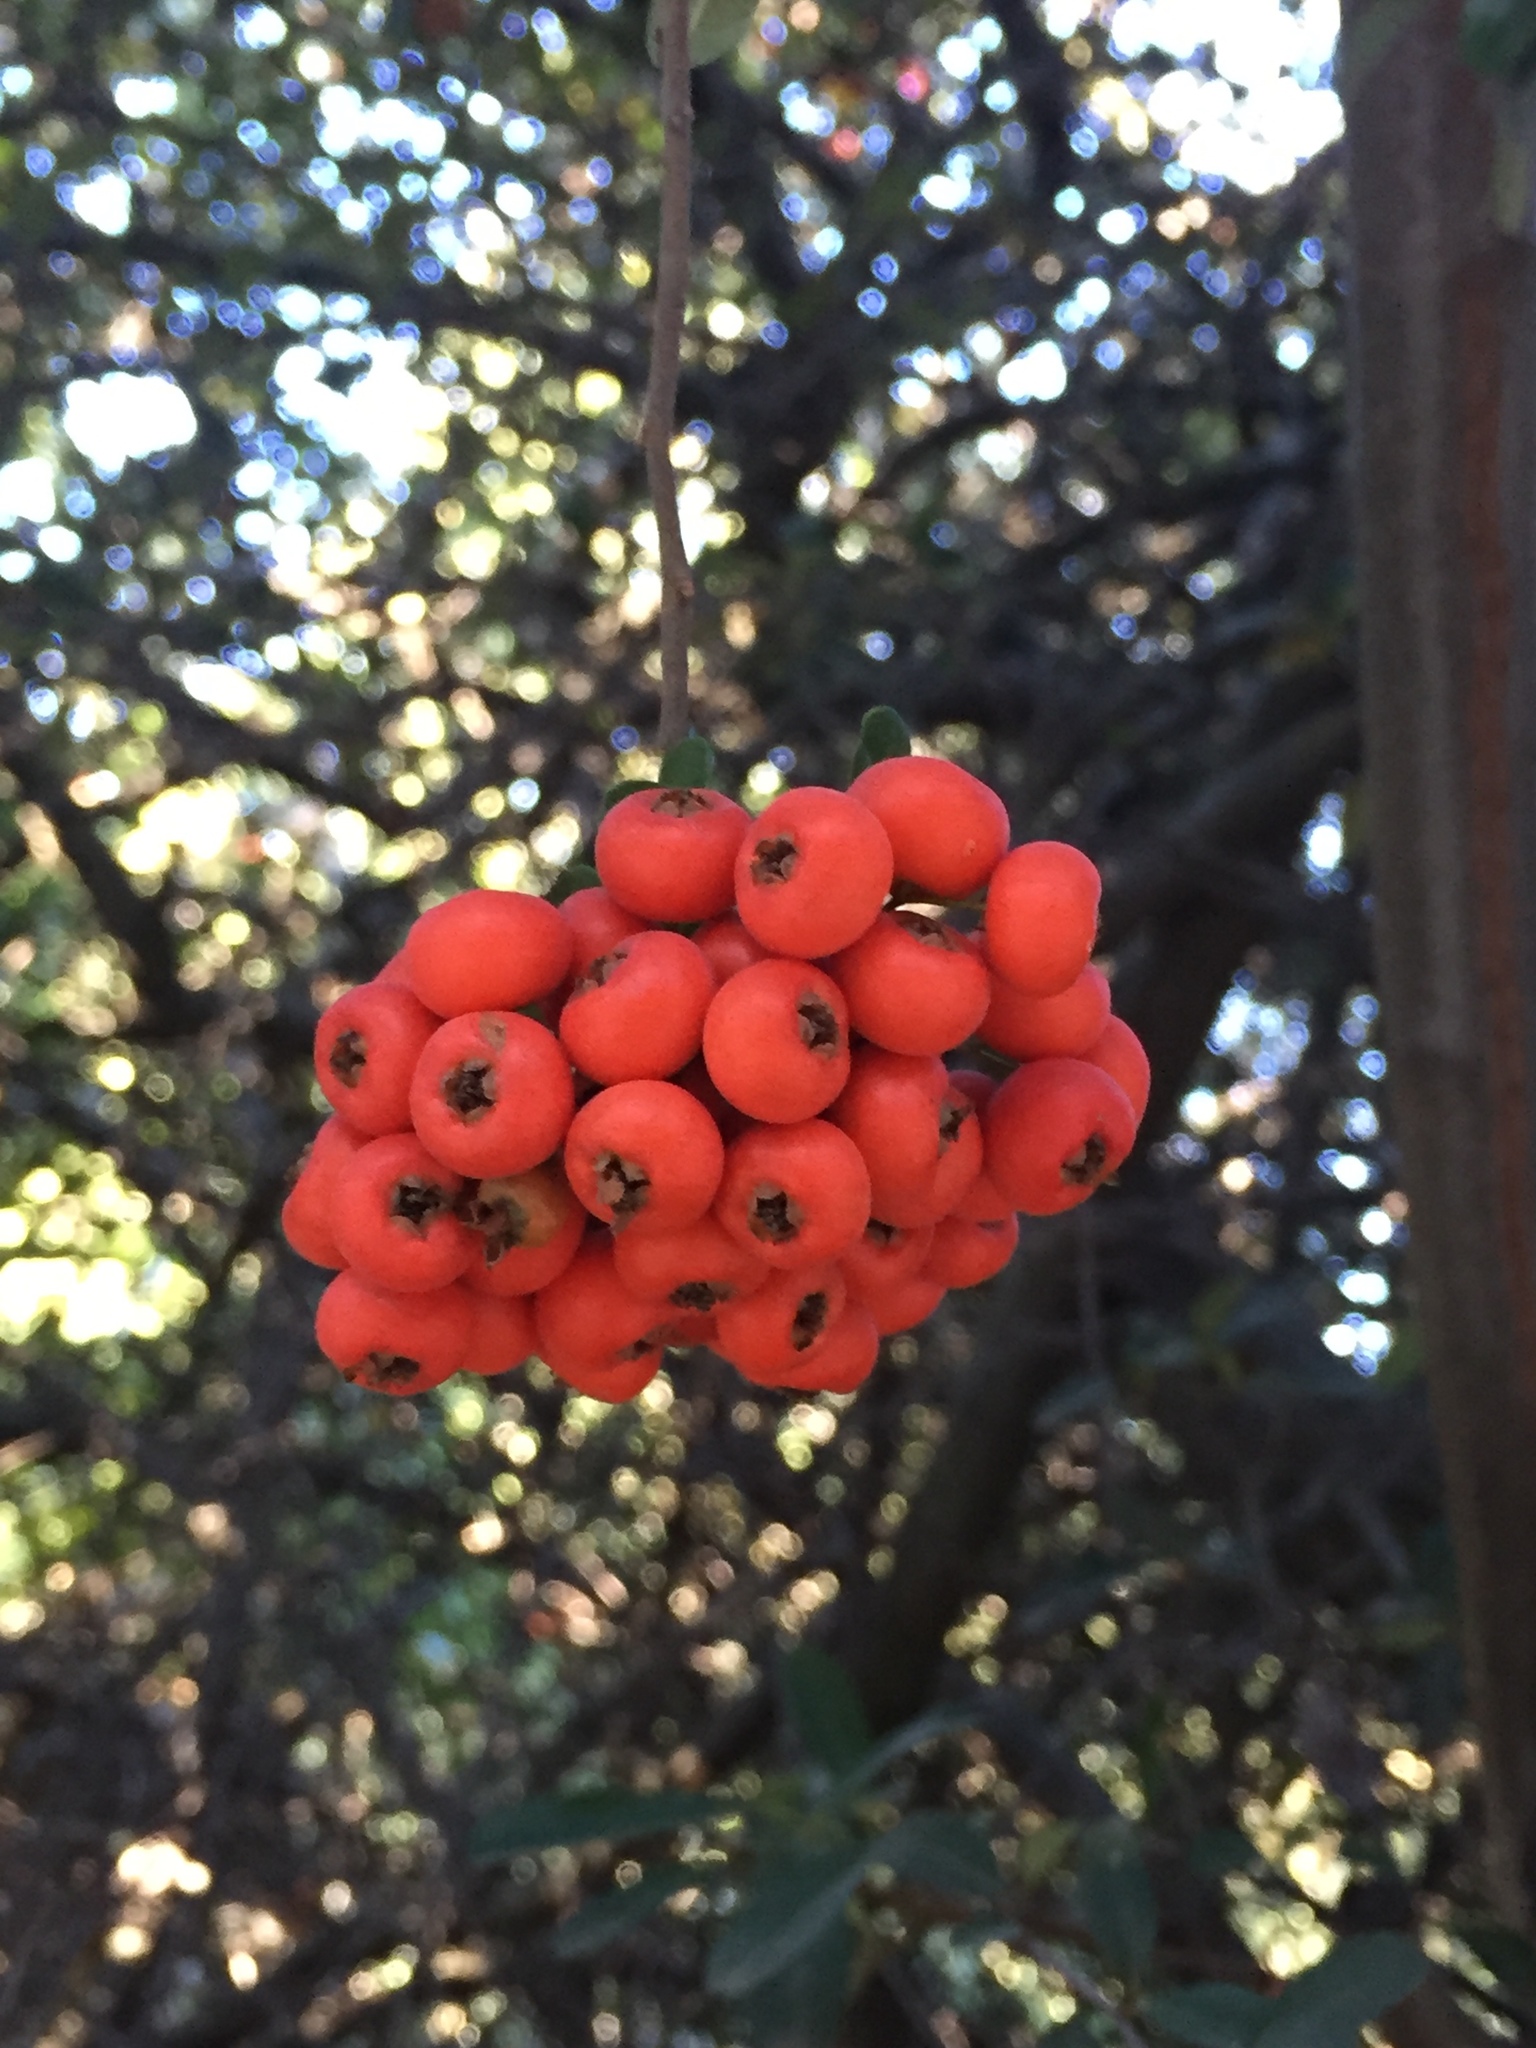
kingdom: Plantae
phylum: Tracheophyta
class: Magnoliopsida
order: Rosales
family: Rosaceae
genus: Heteromeles
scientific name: Heteromeles arbutifolia
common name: California-holly
